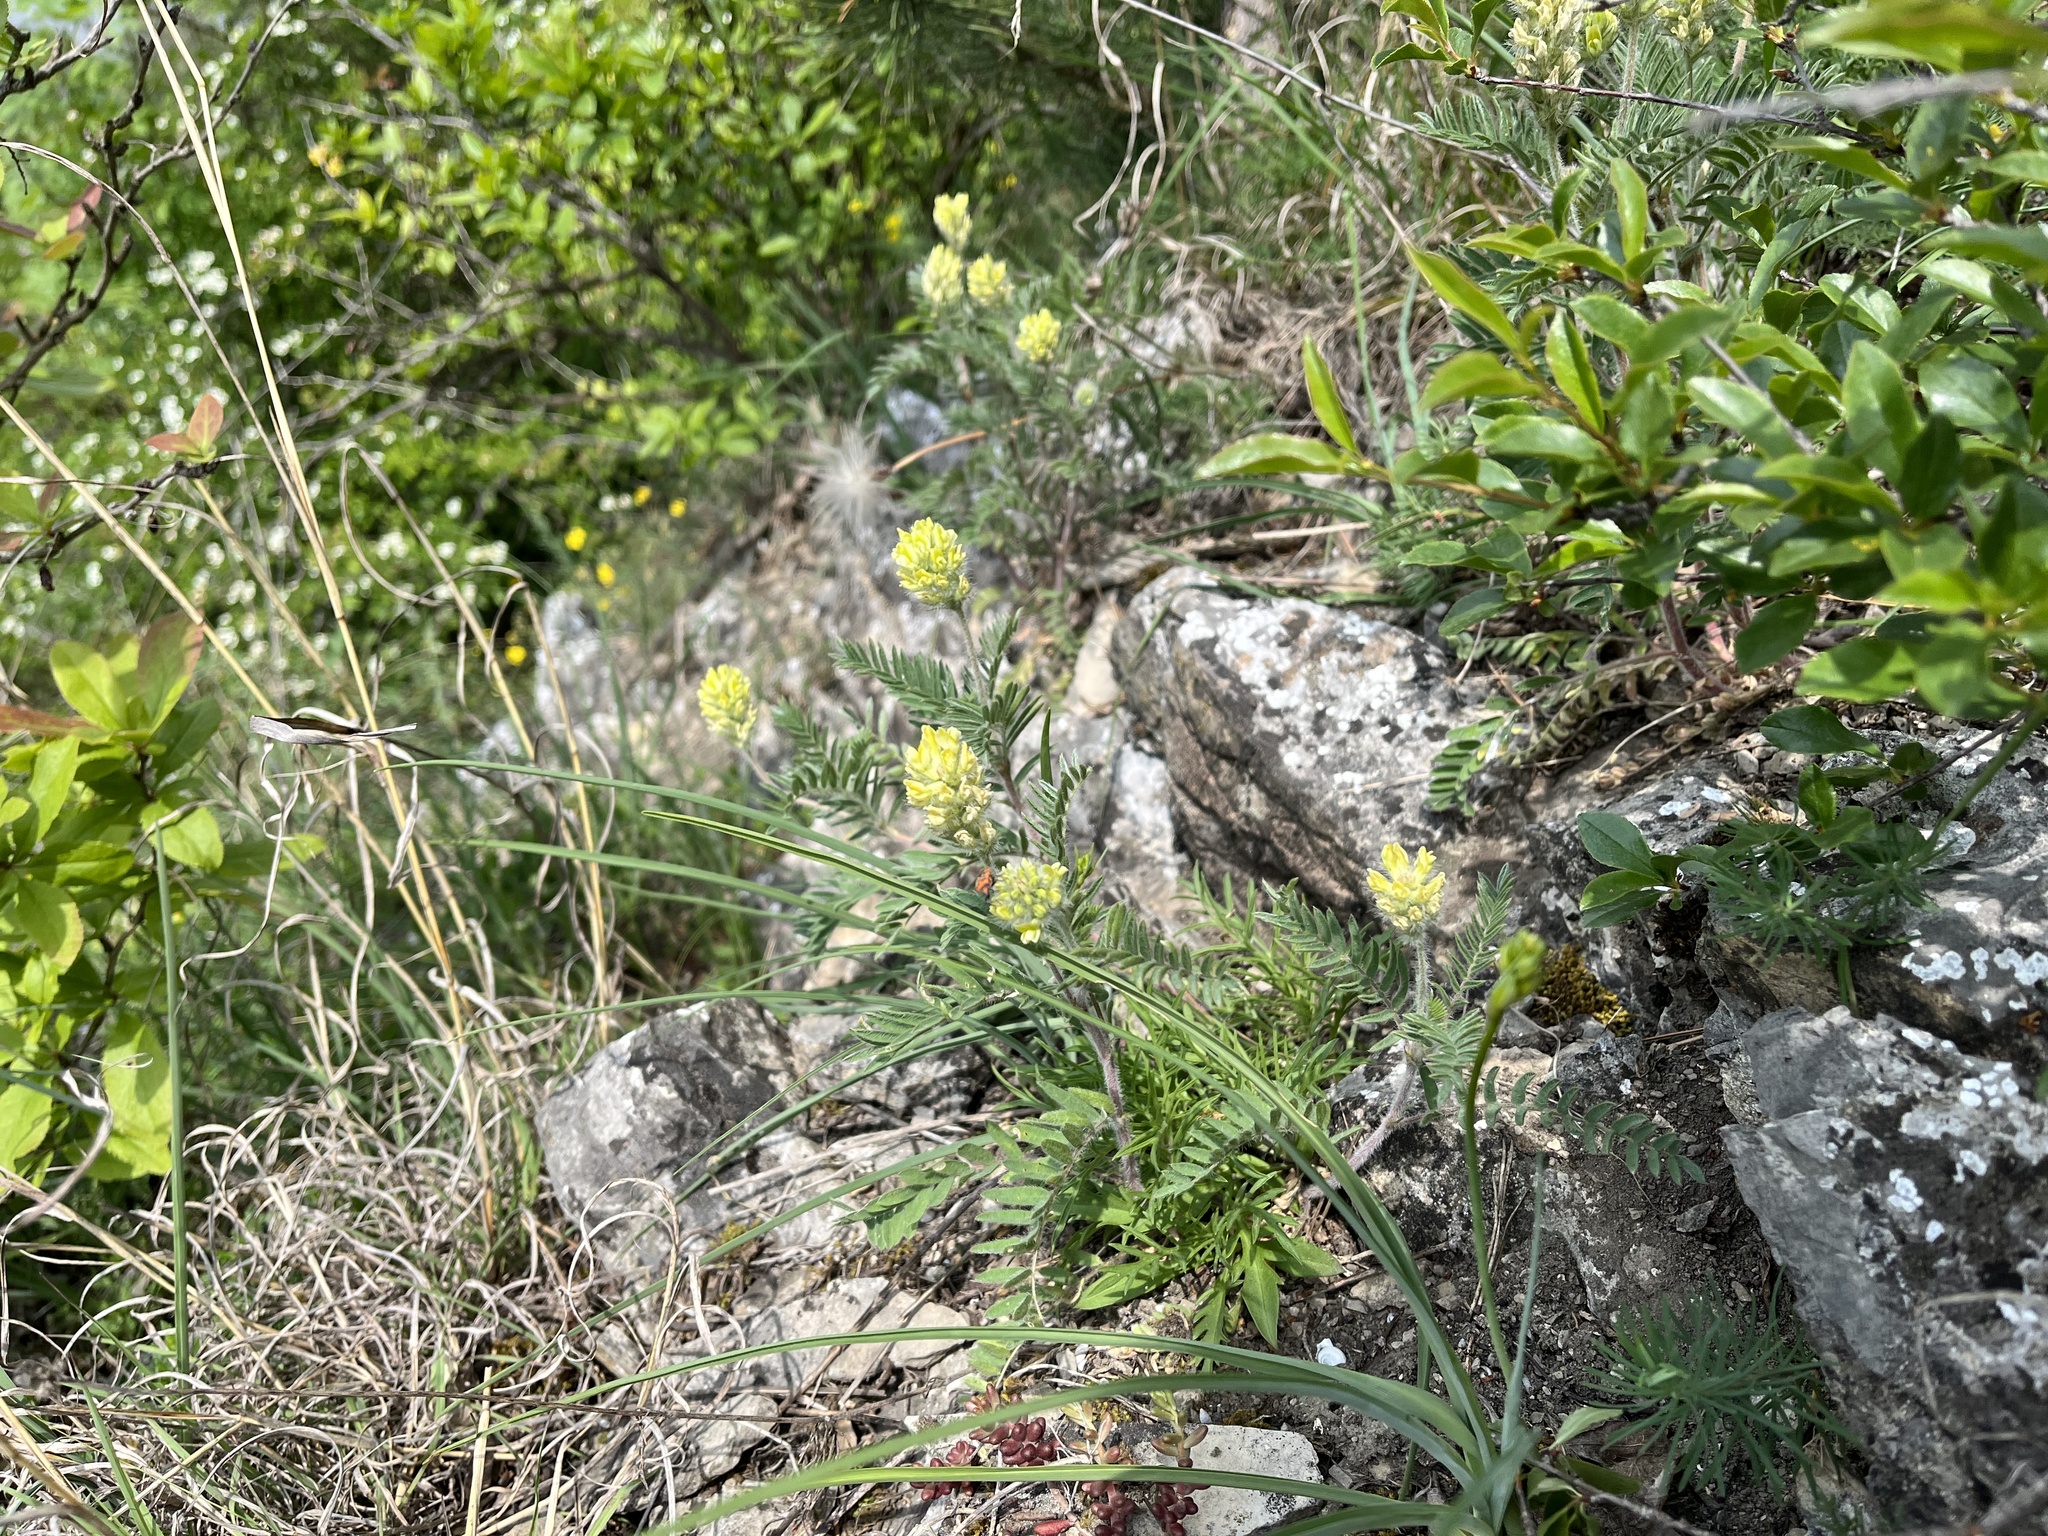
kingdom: Plantae
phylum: Tracheophyta
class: Magnoliopsida
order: Fabales
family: Fabaceae
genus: Oxytropis
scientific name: Oxytropis pilosa
